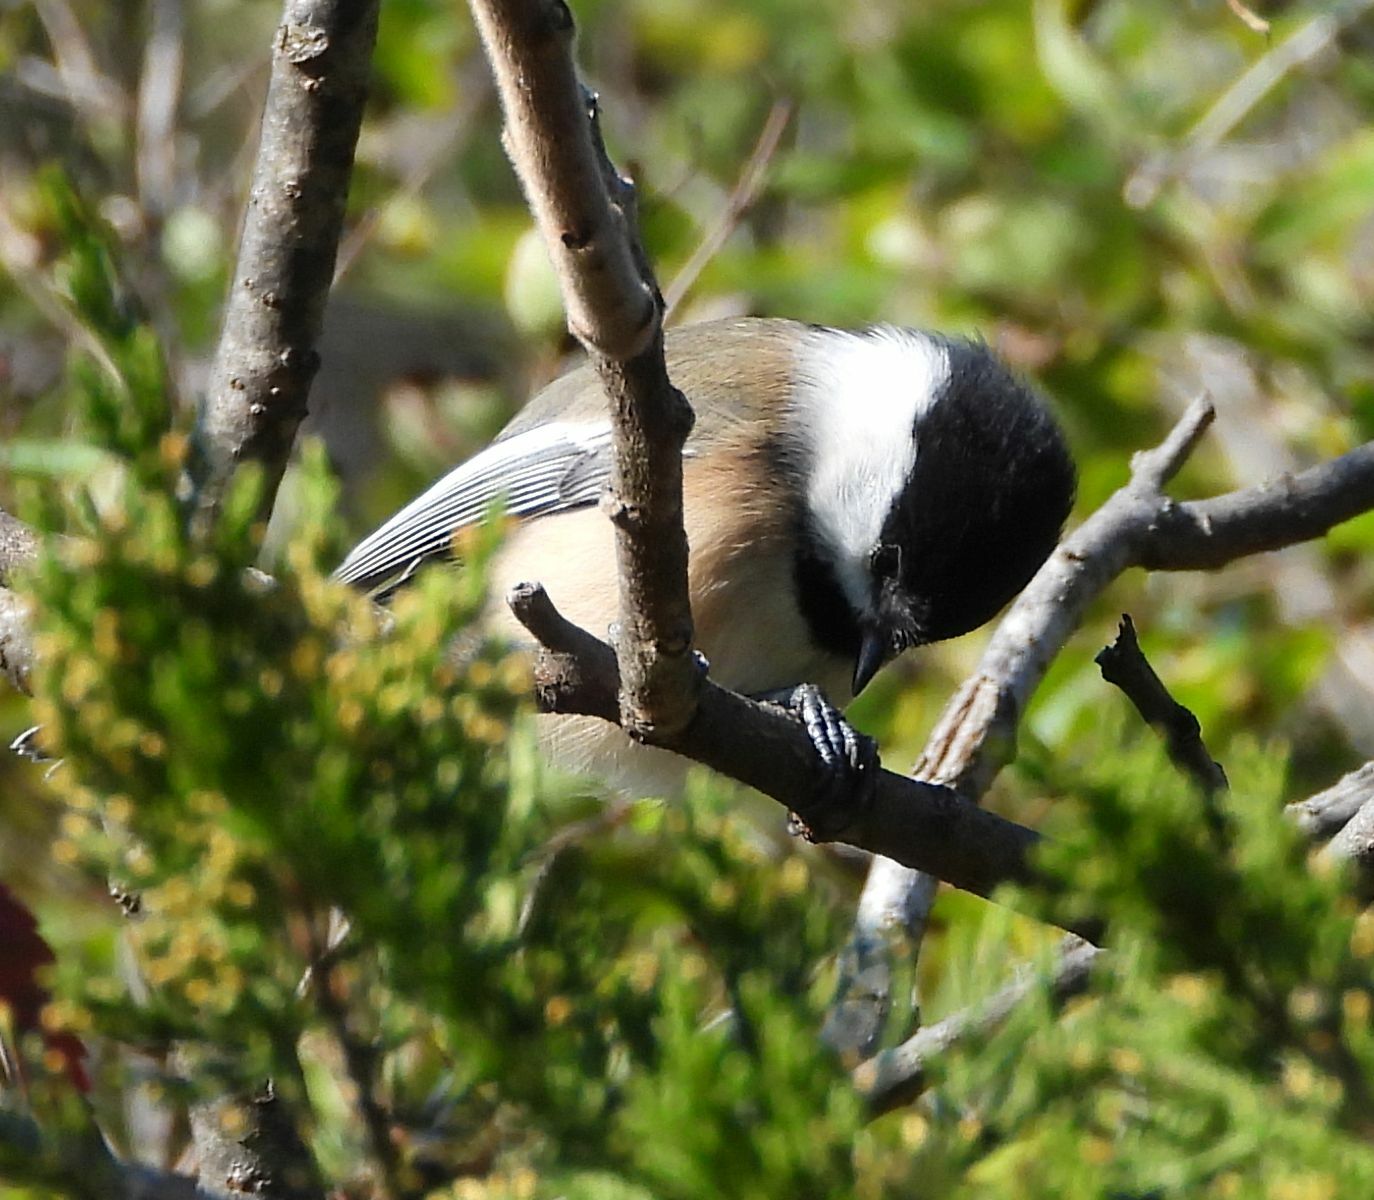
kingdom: Animalia
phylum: Chordata
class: Aves
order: Passeriformes
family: Paridae
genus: Poecile
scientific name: Poecile atricapillus
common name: Black-capped chickadee
